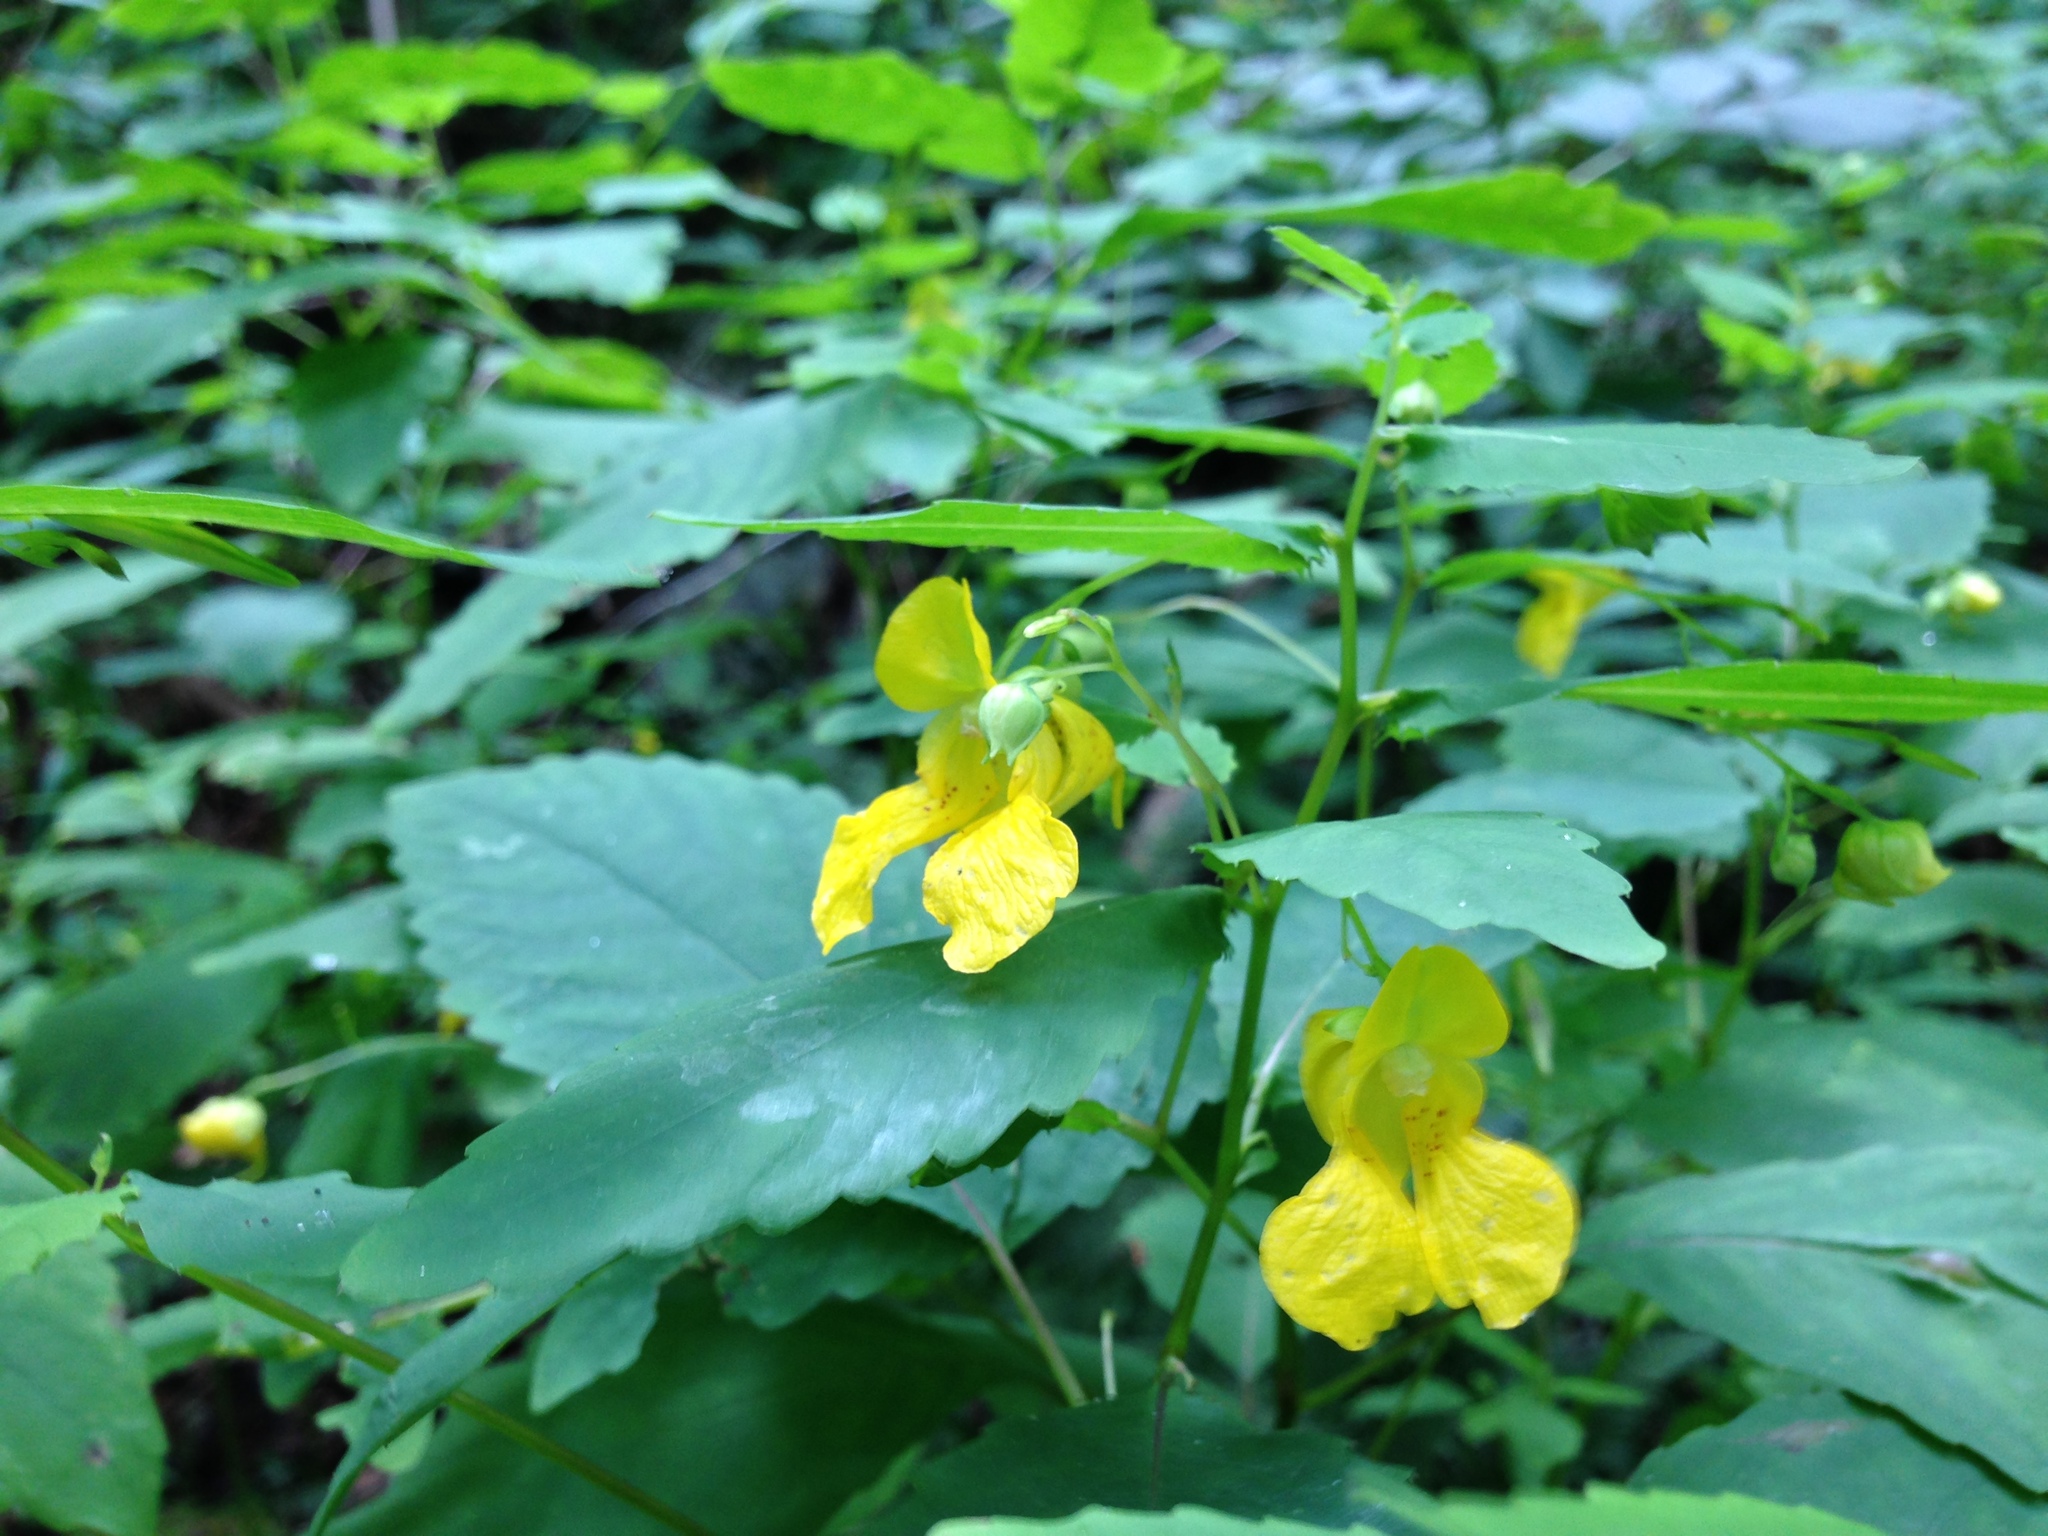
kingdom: Plantae
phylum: Tracheophyta
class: Magnoliopsida
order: Ericales
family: Balsaminaceae
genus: Impatiens
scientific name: Impatiens pallida
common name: Pale snapweed
